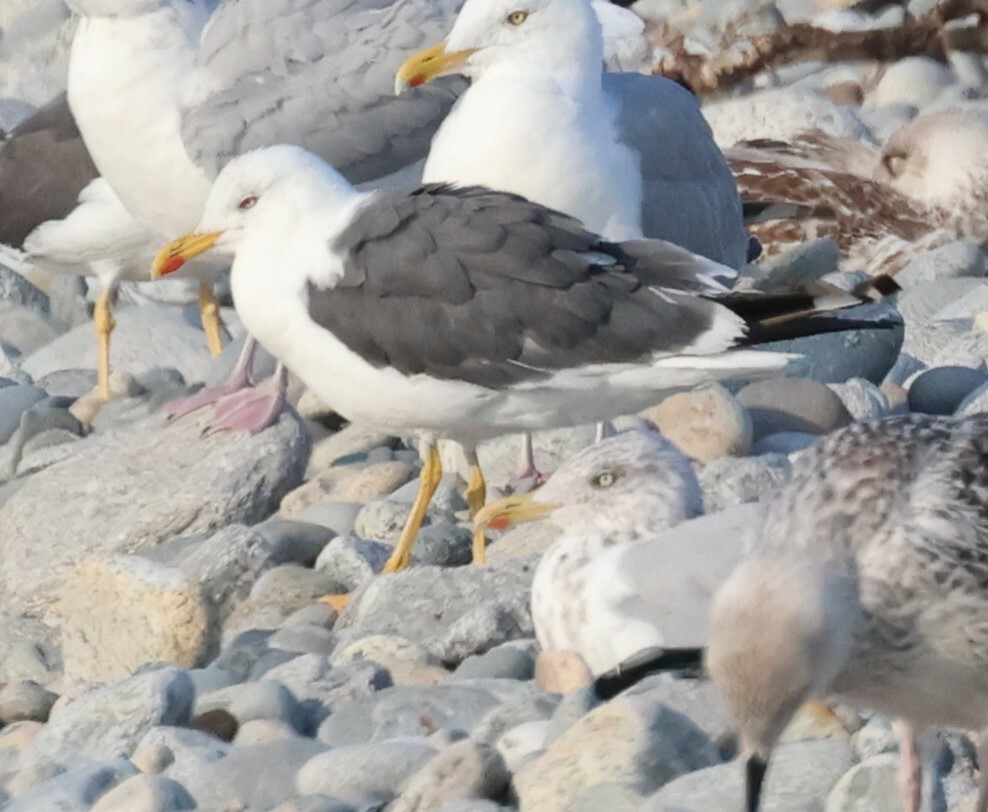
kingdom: Animalia
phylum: Chordata
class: Aves
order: Charadriiformes
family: Laridae
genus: Larus
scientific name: Larus fuscus
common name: Lesser black-backed gull
